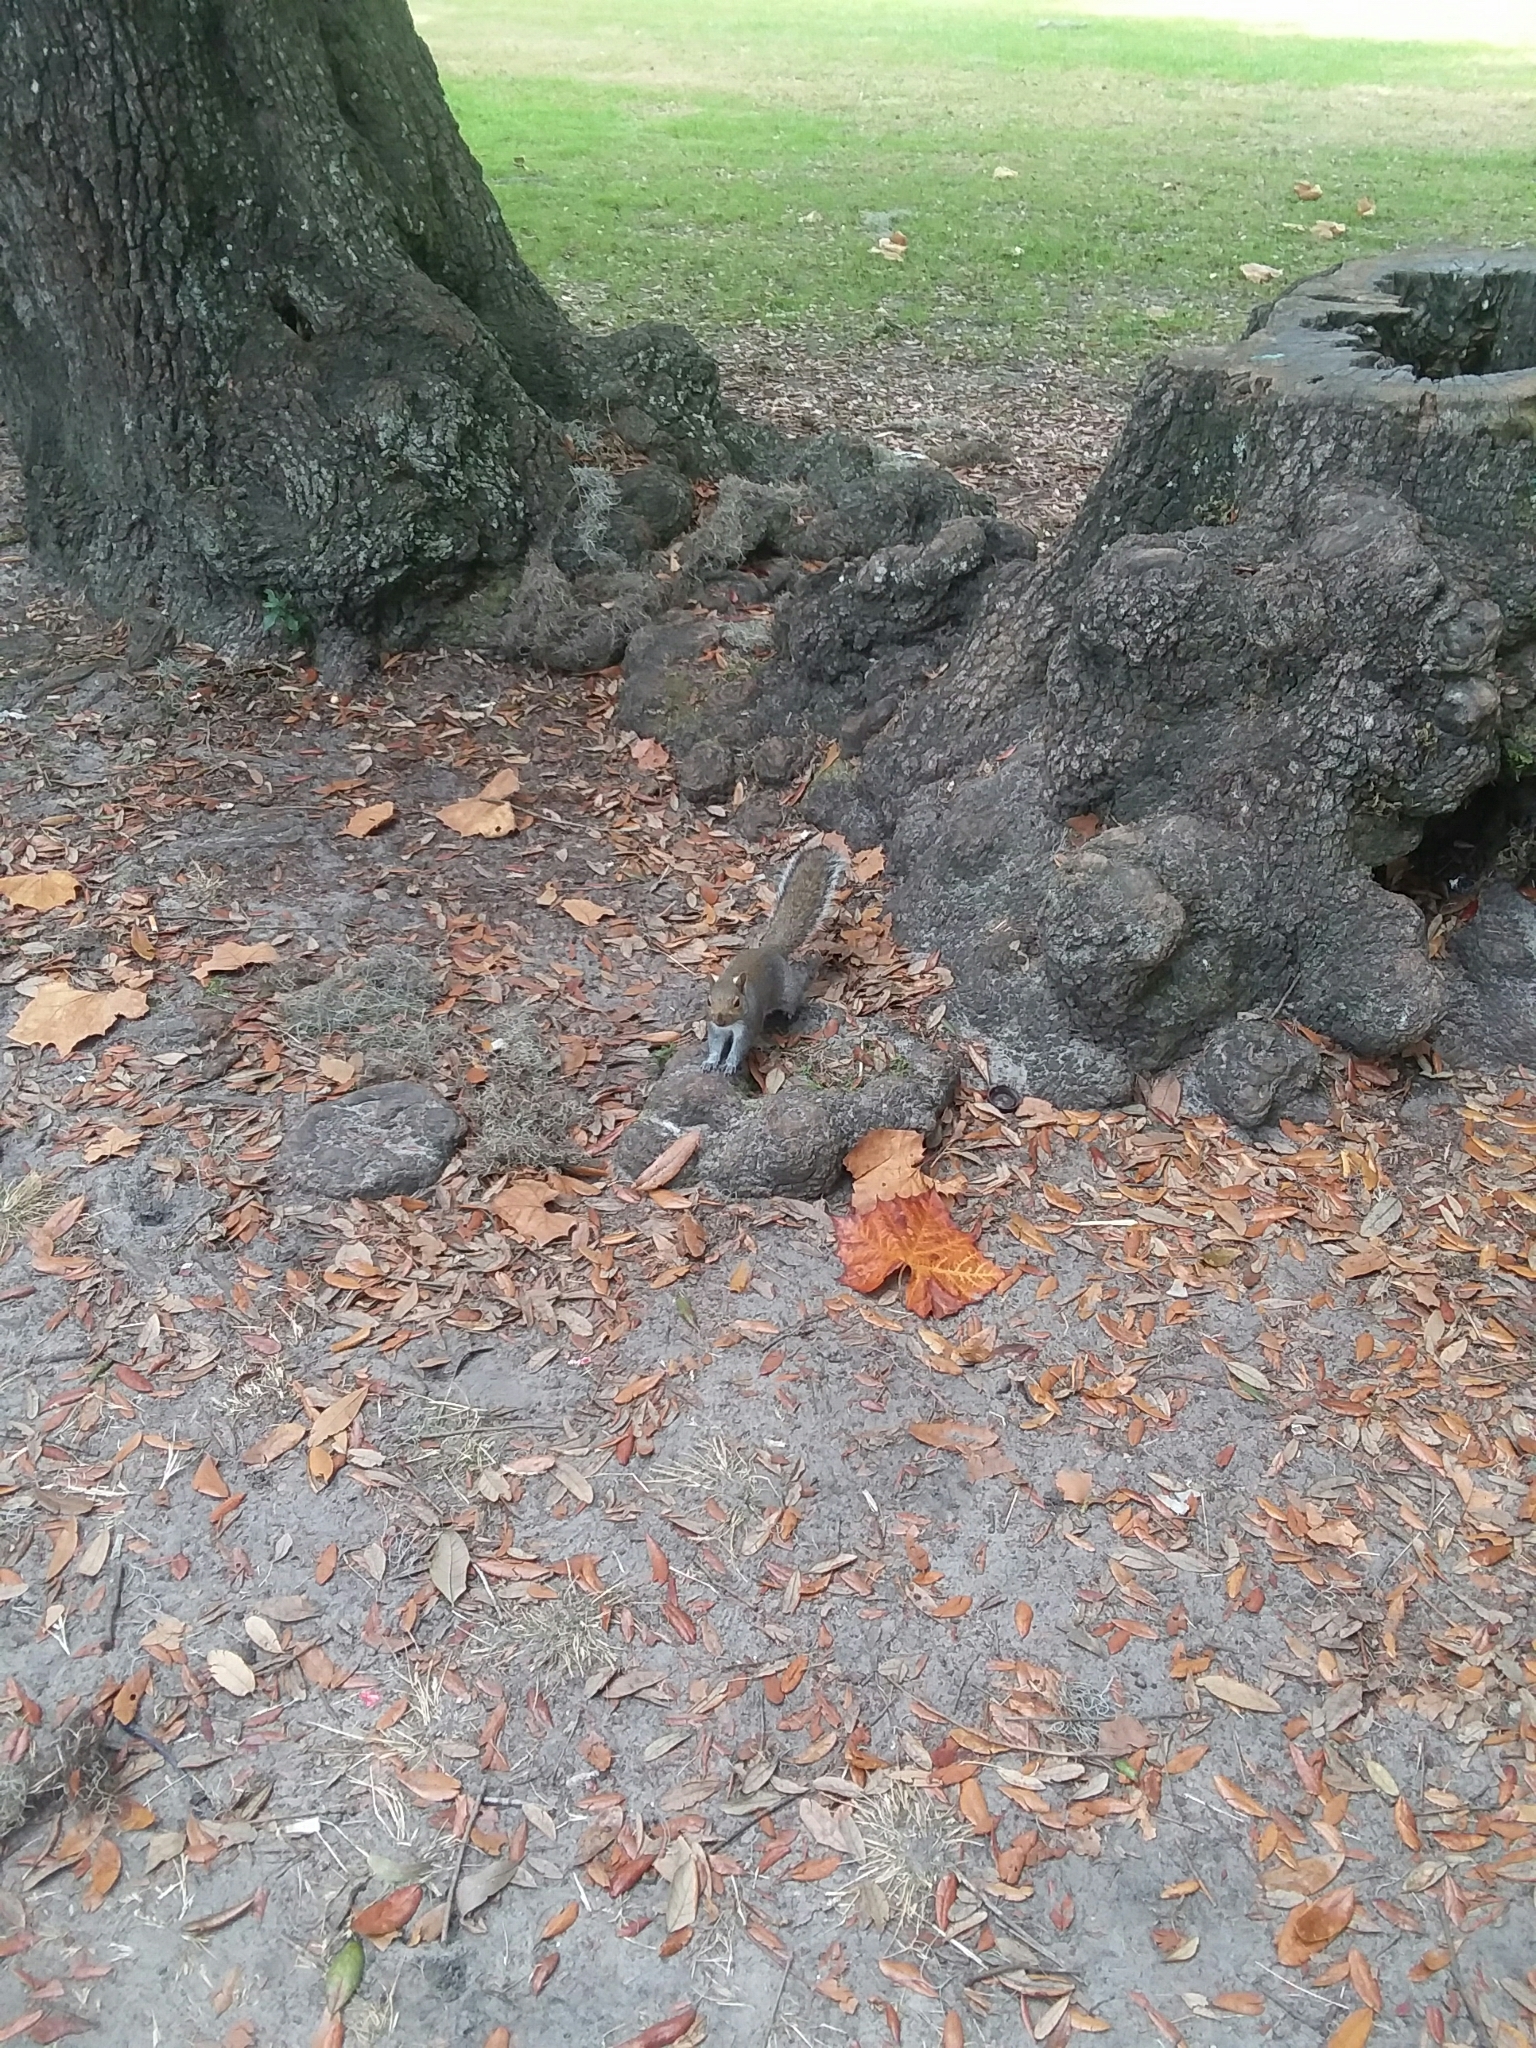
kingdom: Animalia
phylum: Chordata
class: Mammalia
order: Rodentia
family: Sciuridae
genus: Sciurus
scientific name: Sciurus carolinensis
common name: Eastern gray squirrel
